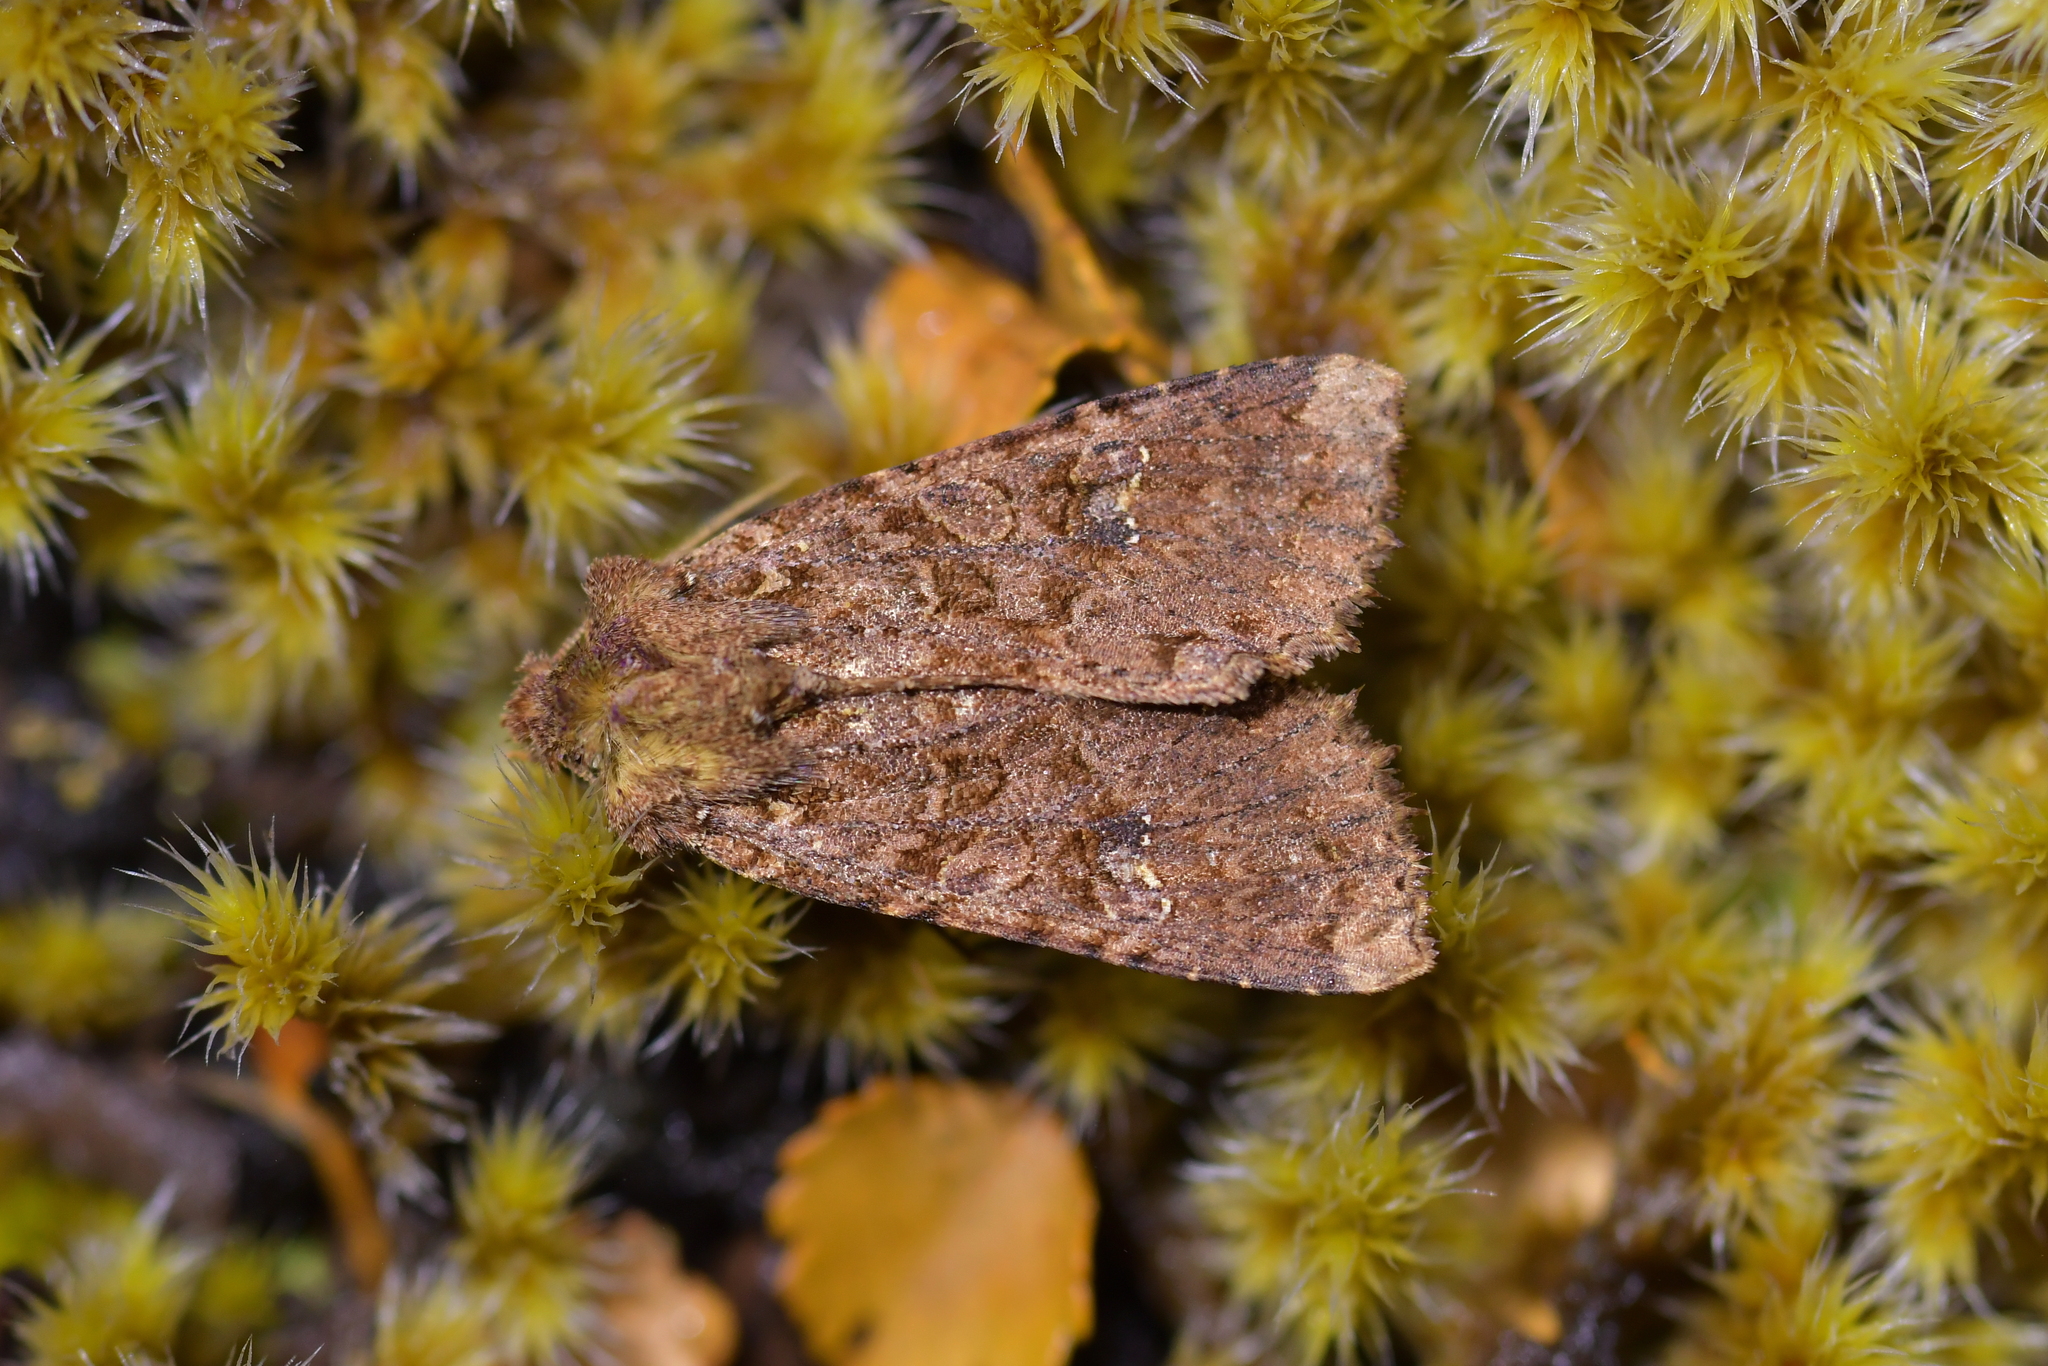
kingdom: Animalia
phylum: Arthropoda
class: Insecta
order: Lepidoptera
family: Noctuidae
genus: Meterana
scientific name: Meterana
